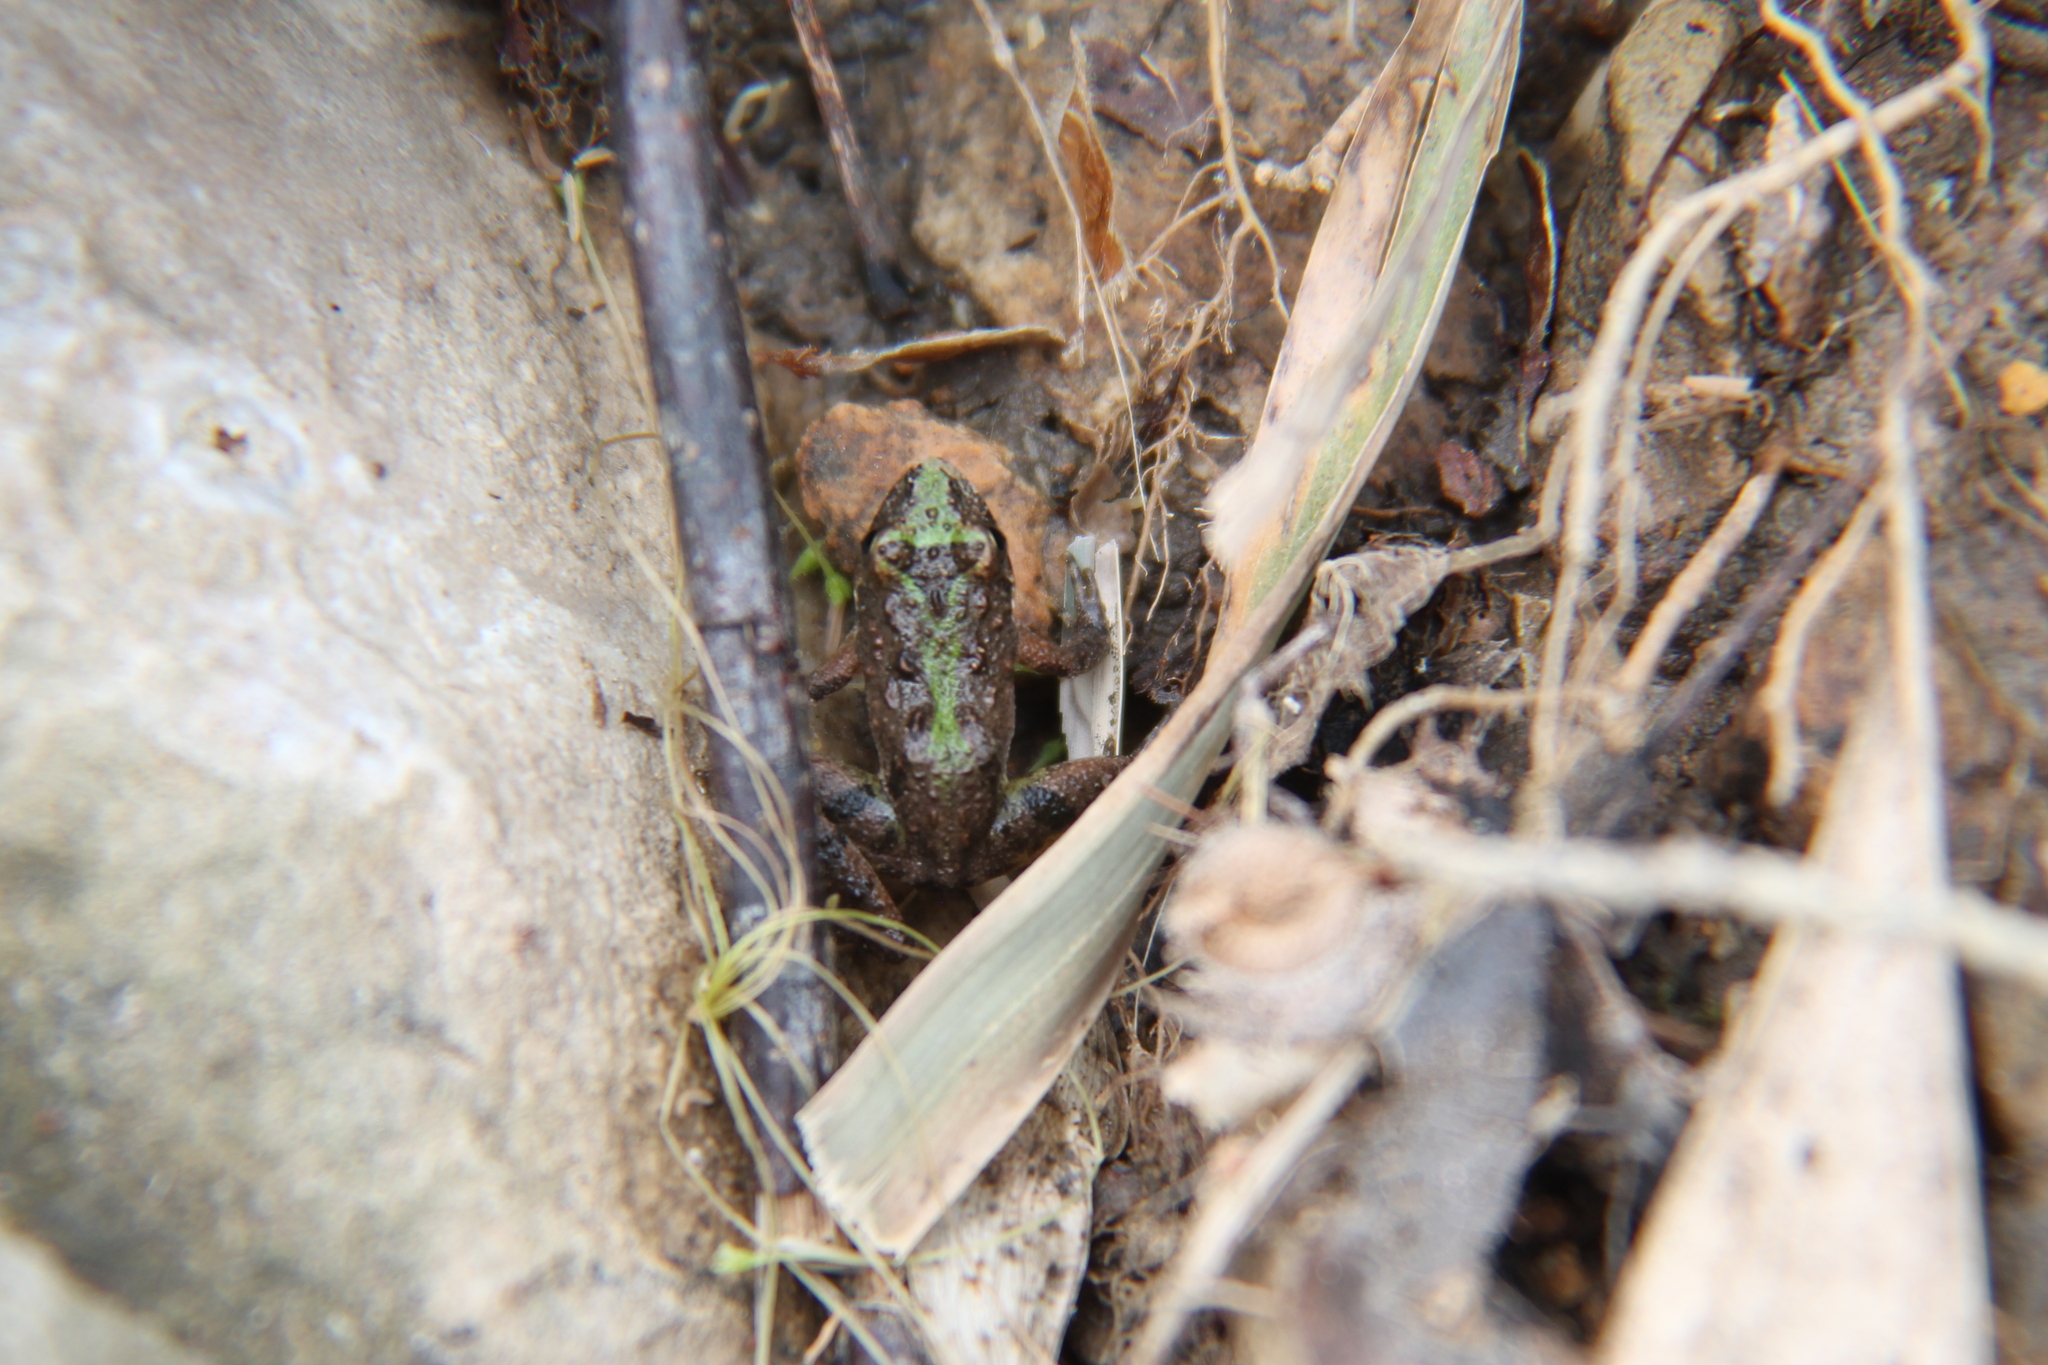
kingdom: Animalia
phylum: Chordata
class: Amphibia
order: Anura
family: Hylidae
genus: Acris
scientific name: Acris crepitans
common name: Northern cricket frog
